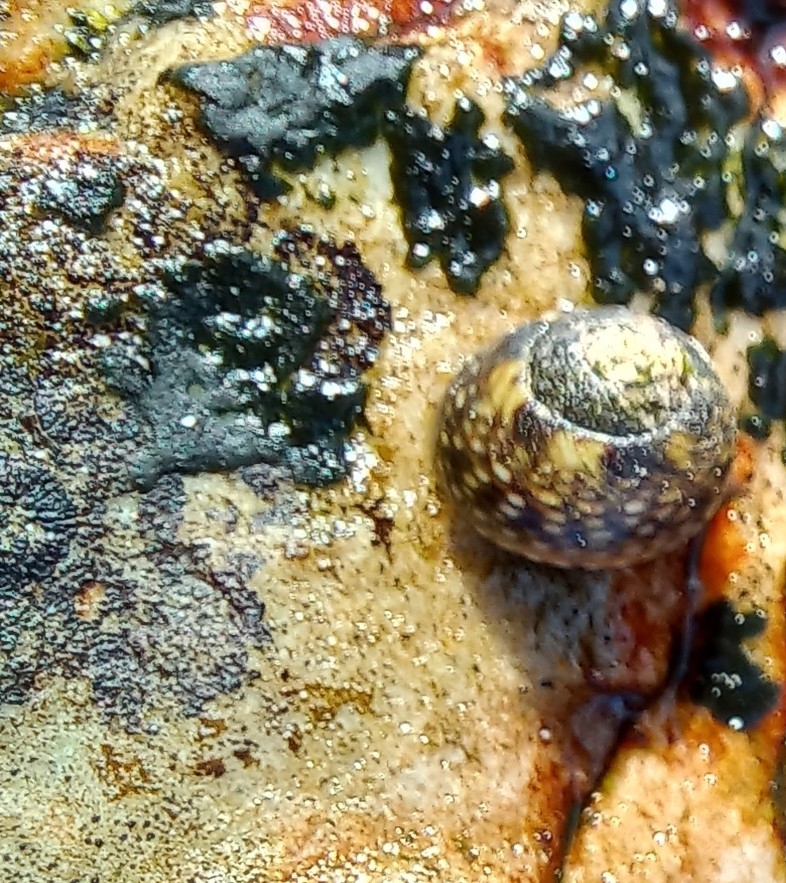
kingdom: Animalia
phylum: Mollusca
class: Gastropoda
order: Trochida
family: Trochidae
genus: Oxystele
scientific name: Oxystele impervia
